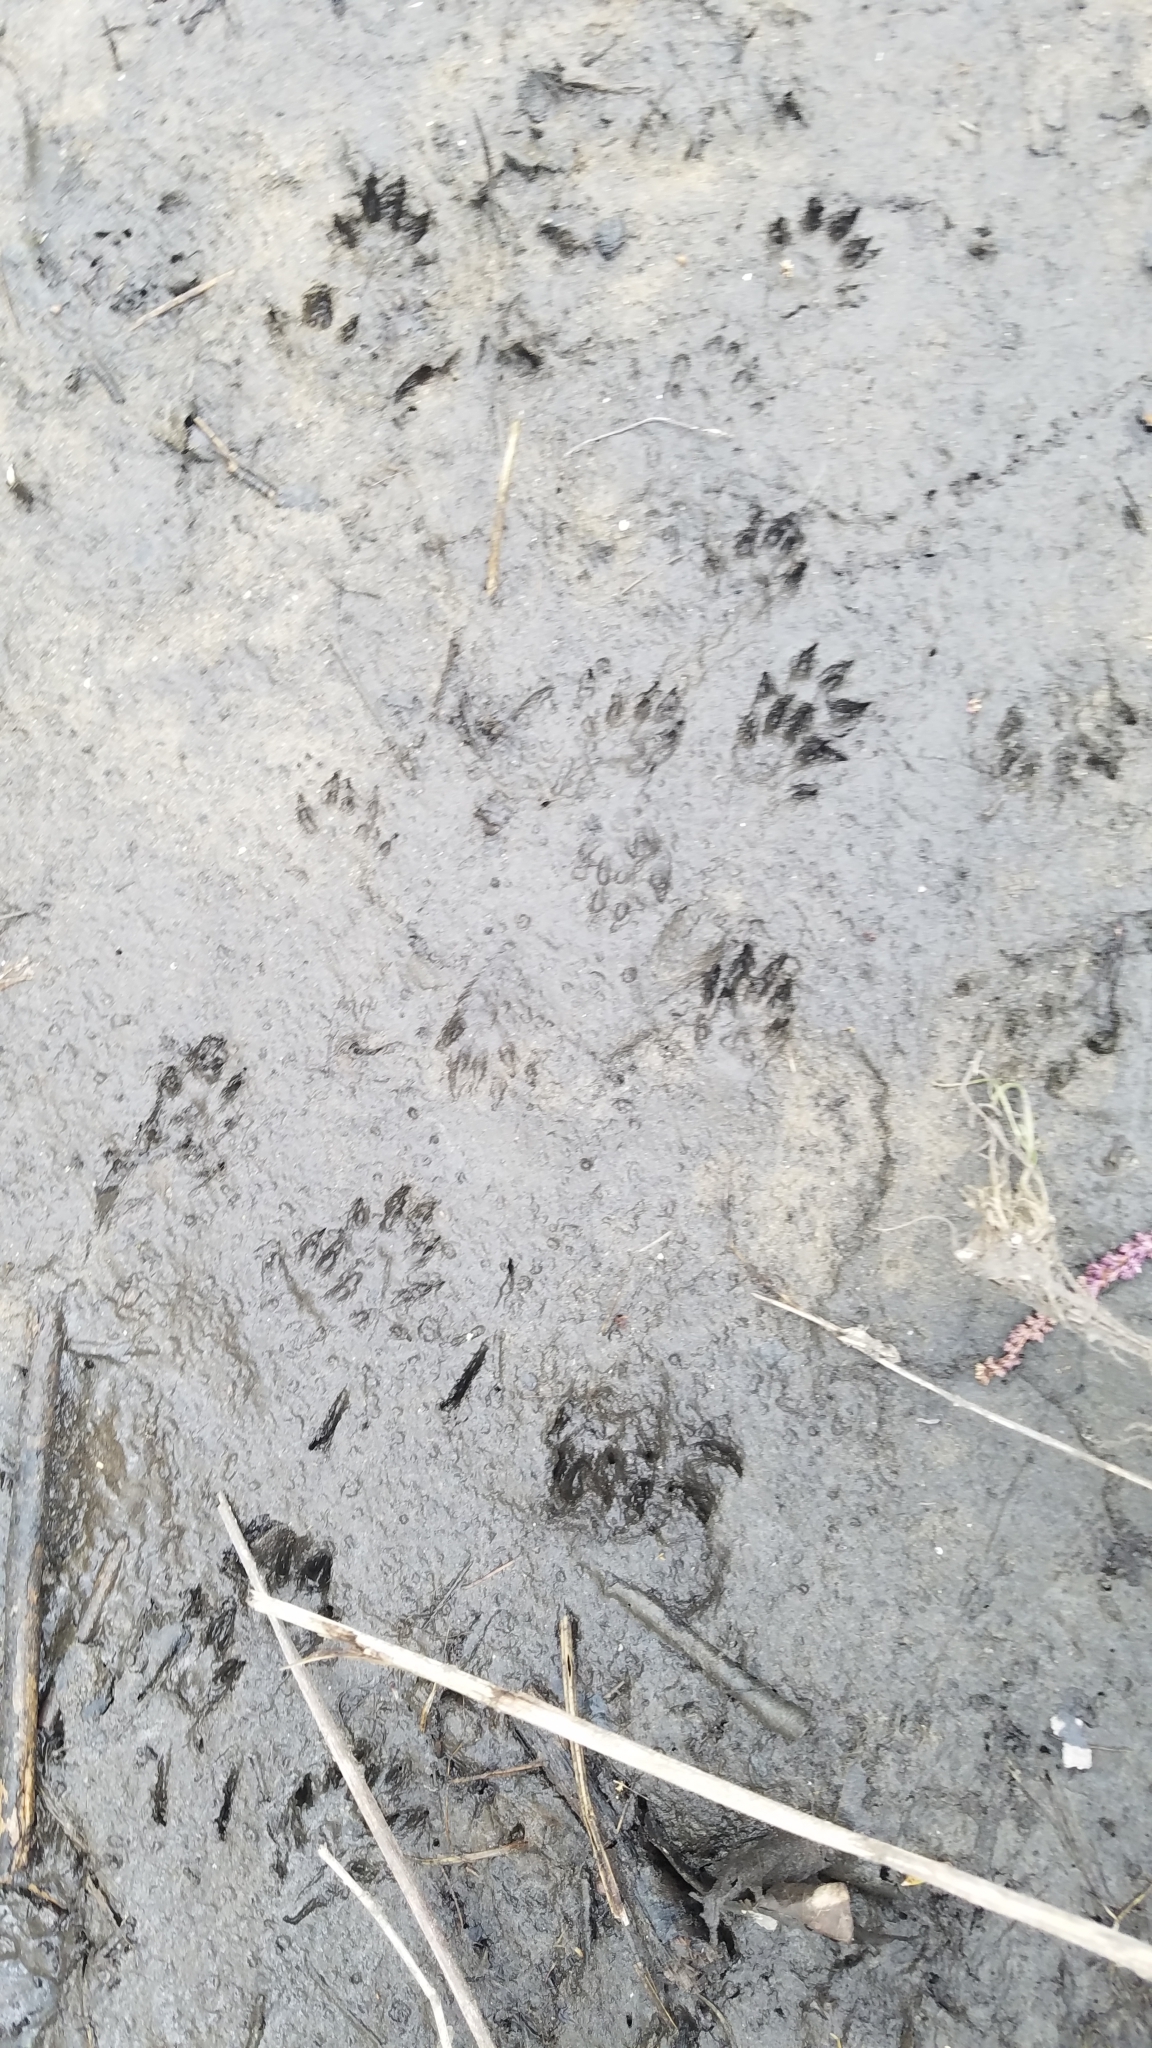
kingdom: Animalia
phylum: Chordata
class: Mammalia
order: Carnivora
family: Mustelidae
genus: Mustela
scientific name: Mustela
